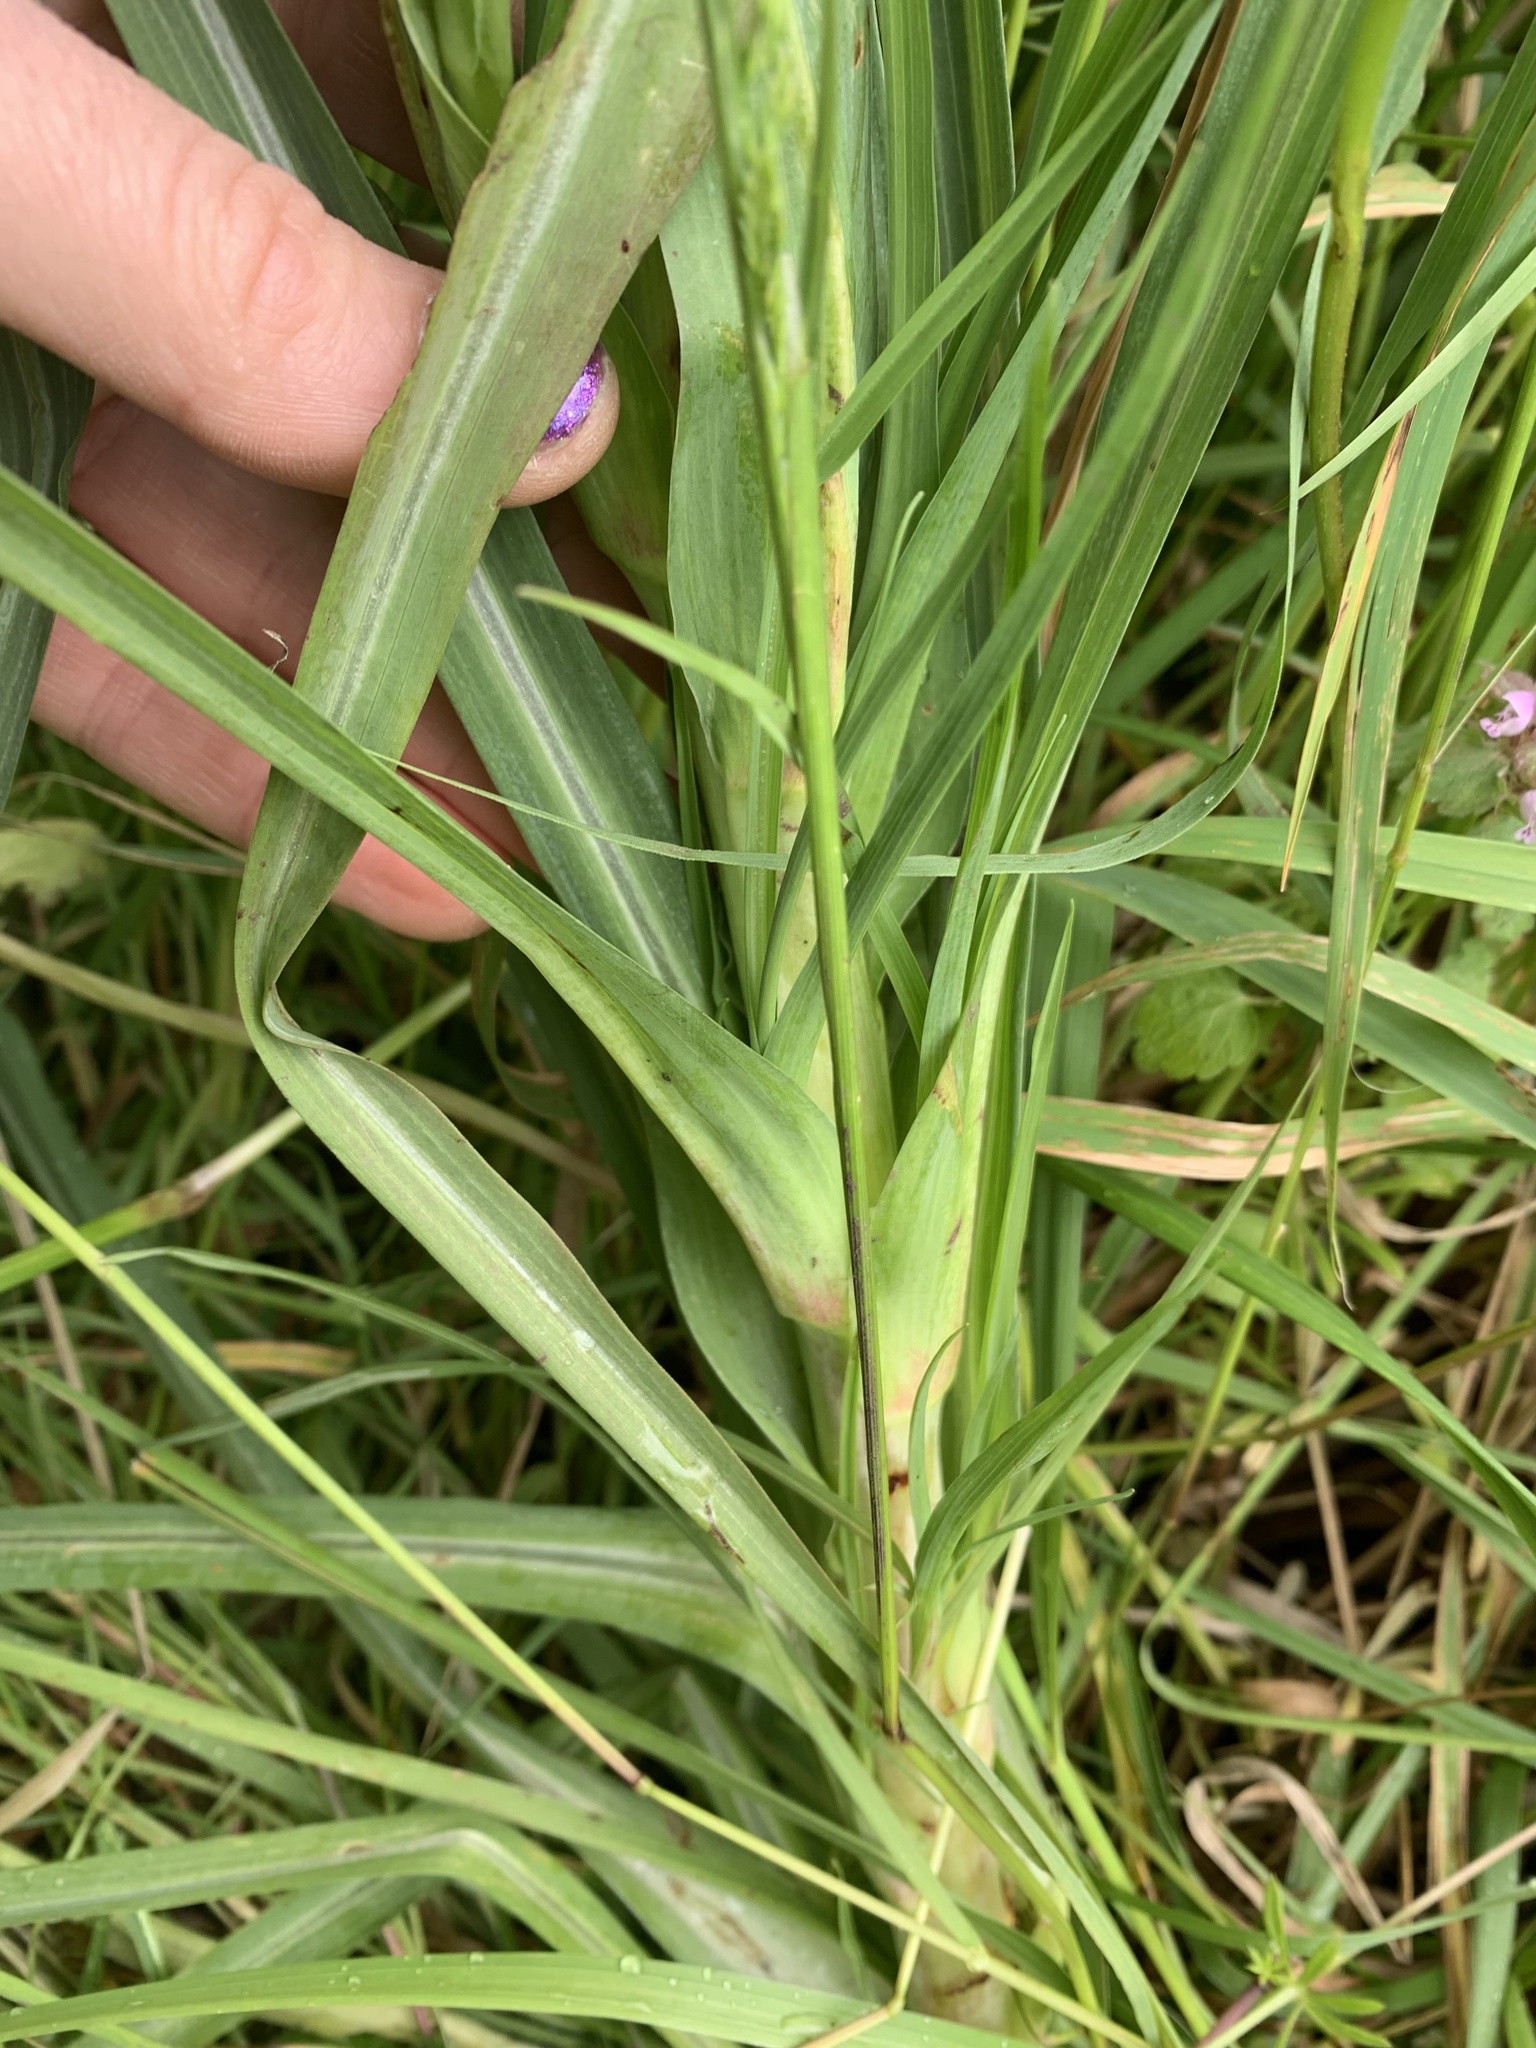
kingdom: Plantae
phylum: Tracheophyta
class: Magnoliopsida
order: Asterales
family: Asteraceae
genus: Tragopogon
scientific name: Tragopogon porrifolius
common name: Salsify
